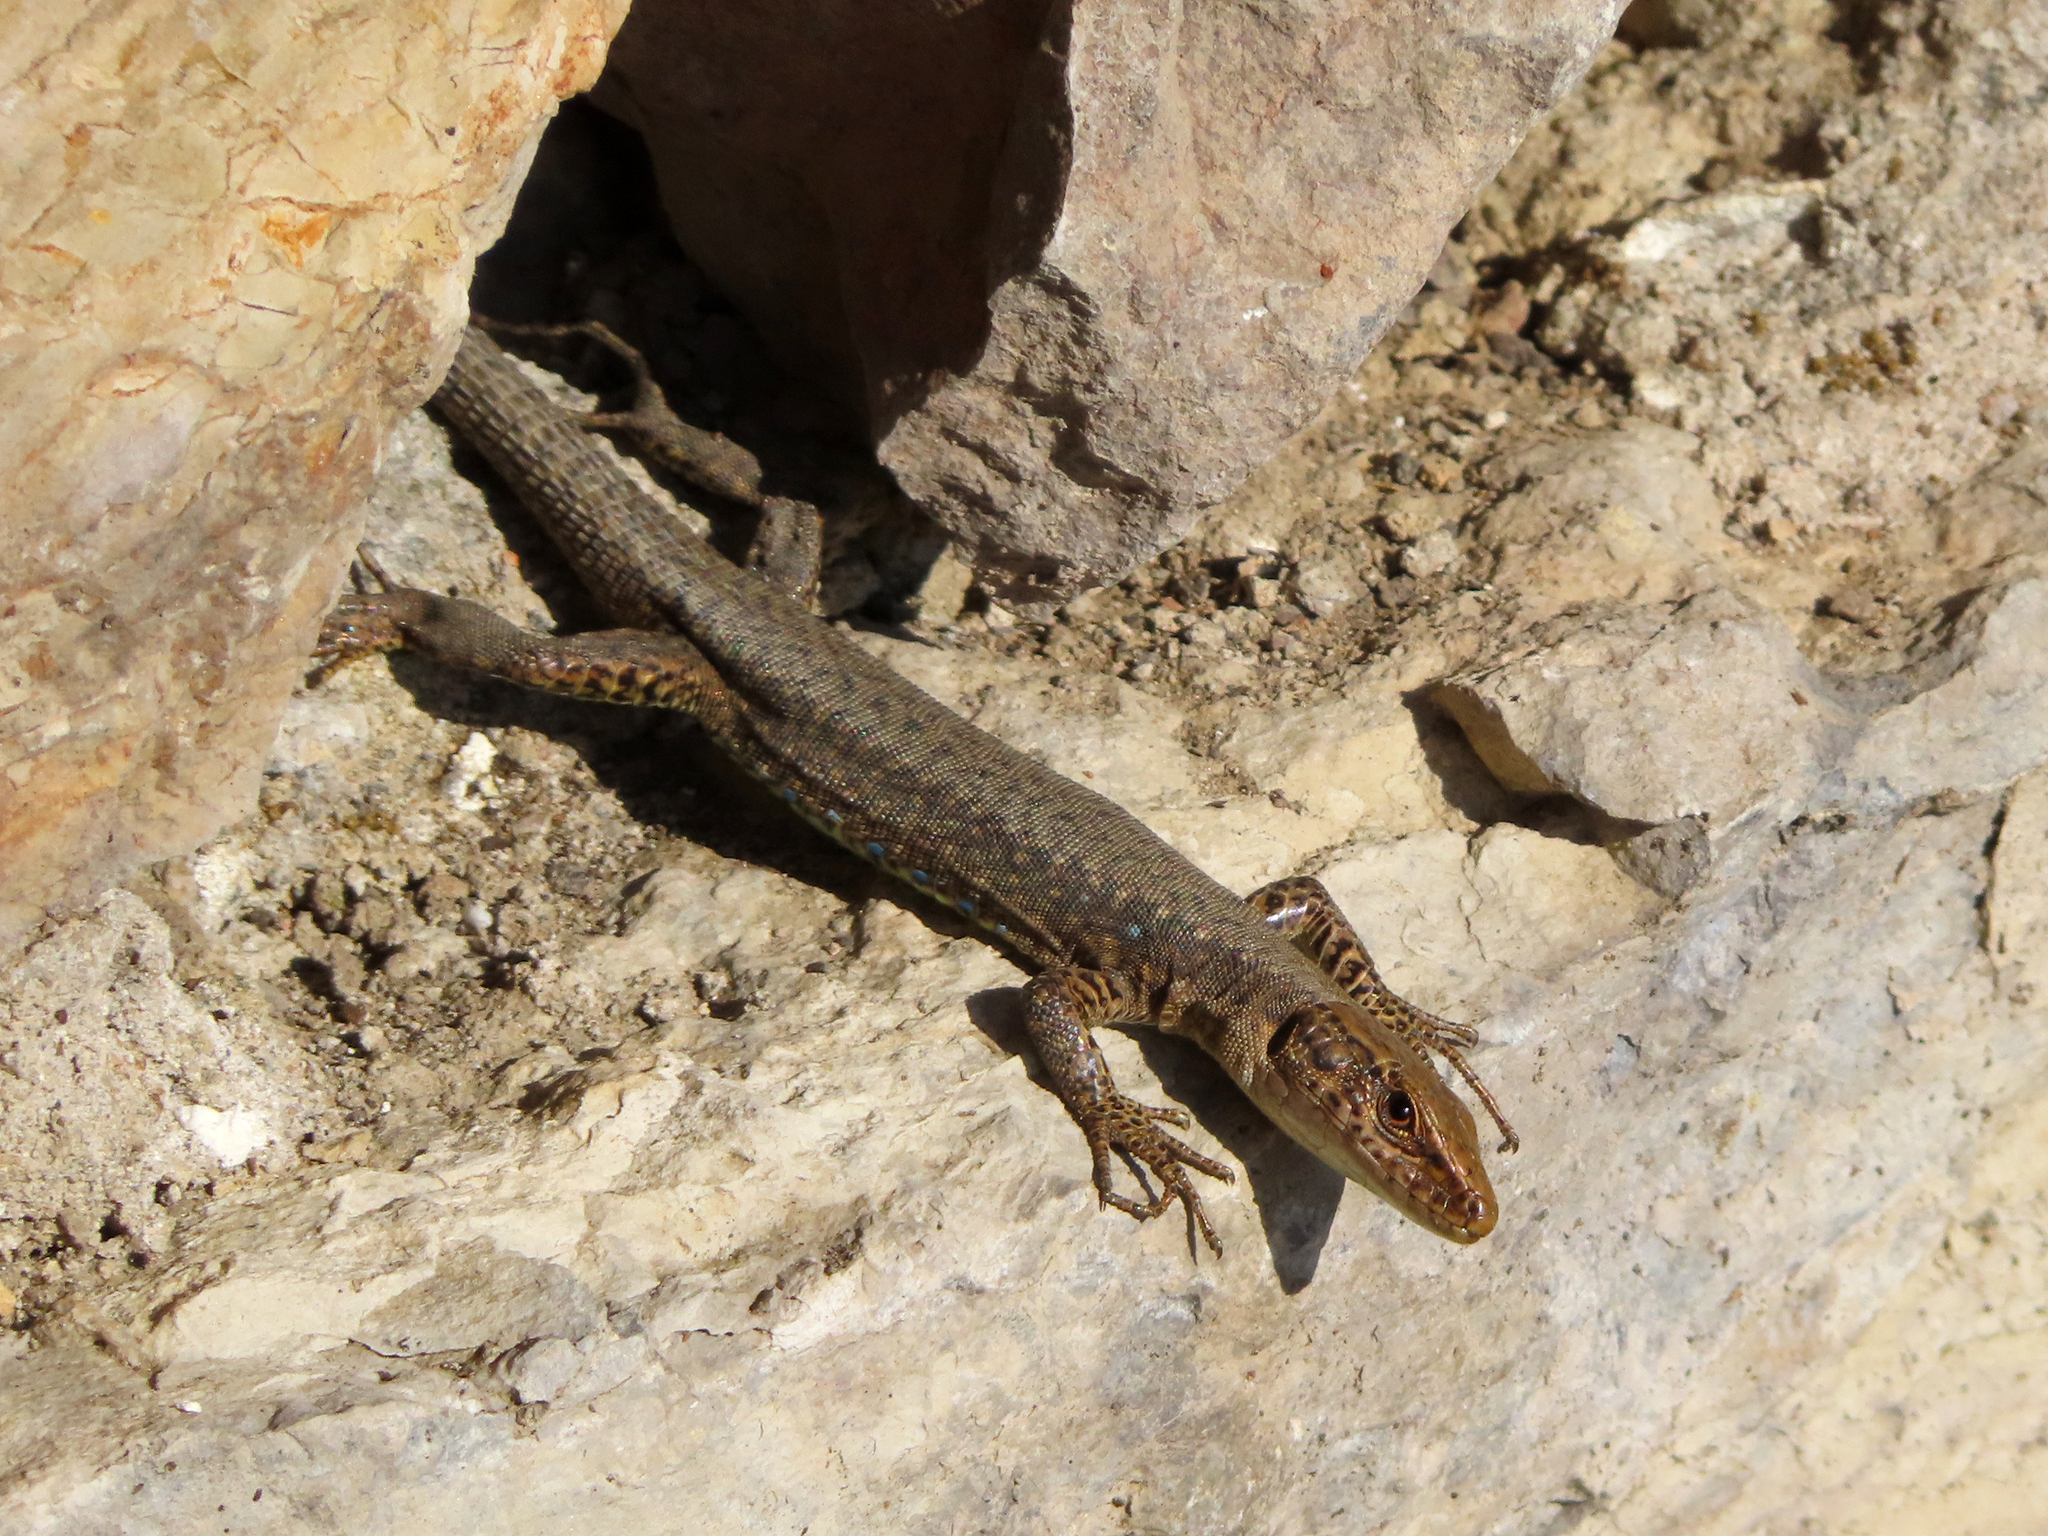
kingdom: Animalia
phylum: Chordata
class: Squamata
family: Lacertidae
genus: Darevskia
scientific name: Darevskia mixta
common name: Ajarian lizard
